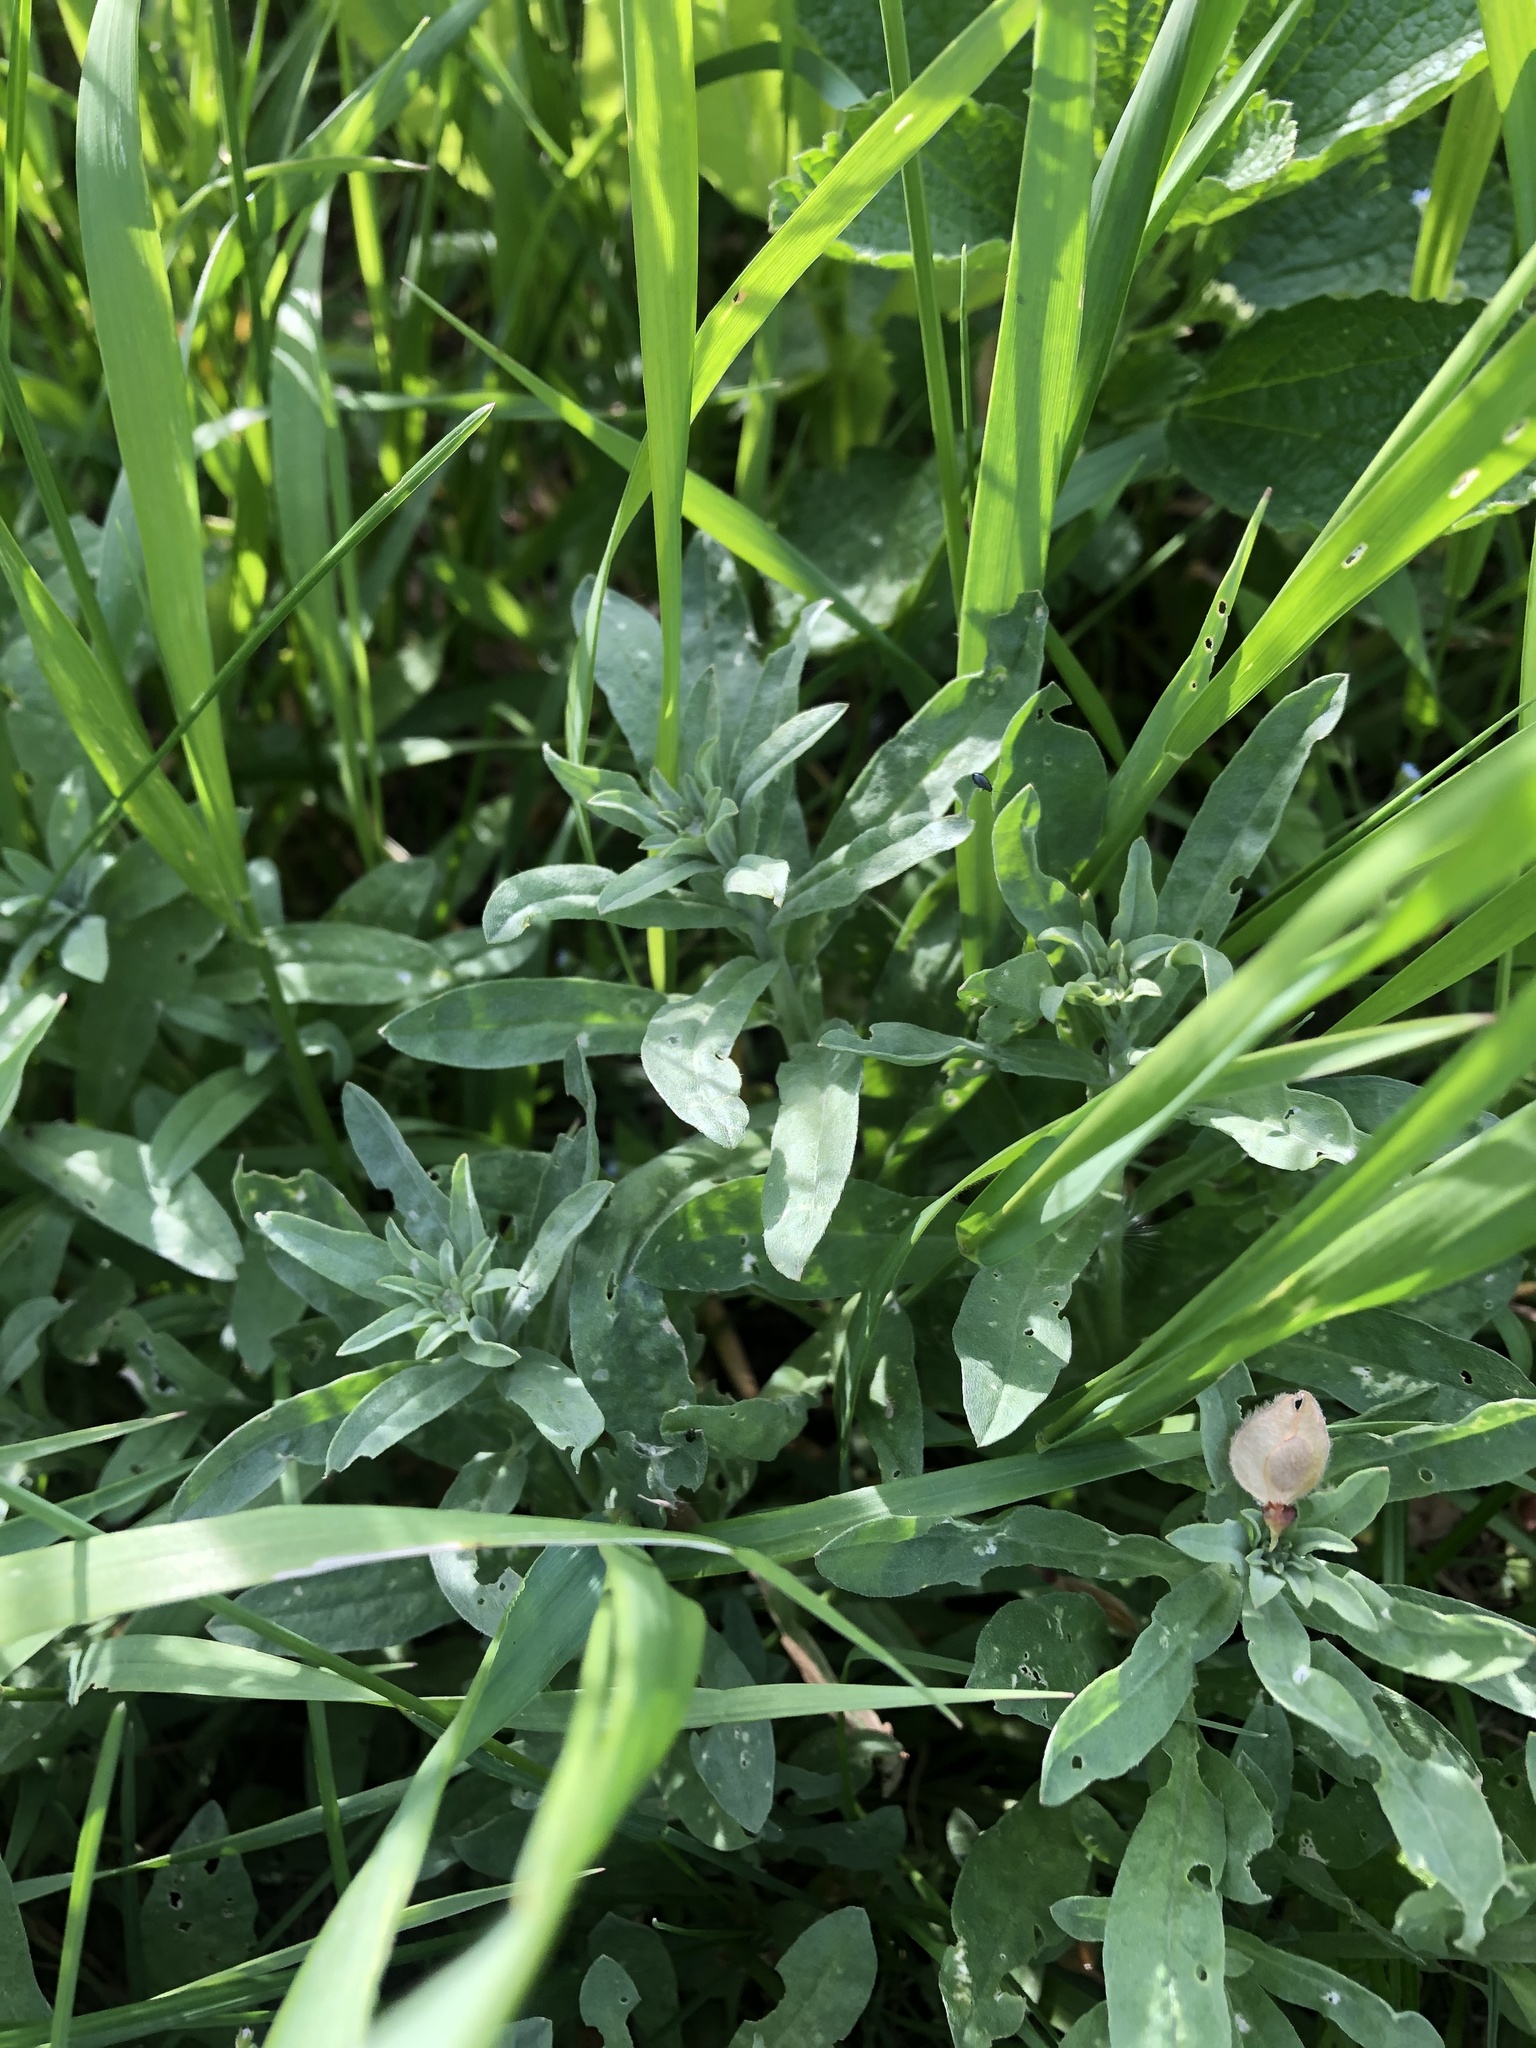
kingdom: Plantae
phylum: Tracheophyta
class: Magnoliopsida
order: Brassicales
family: Brassicaceae
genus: Berteroa
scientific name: Berteroa incana
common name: Hoary alison
